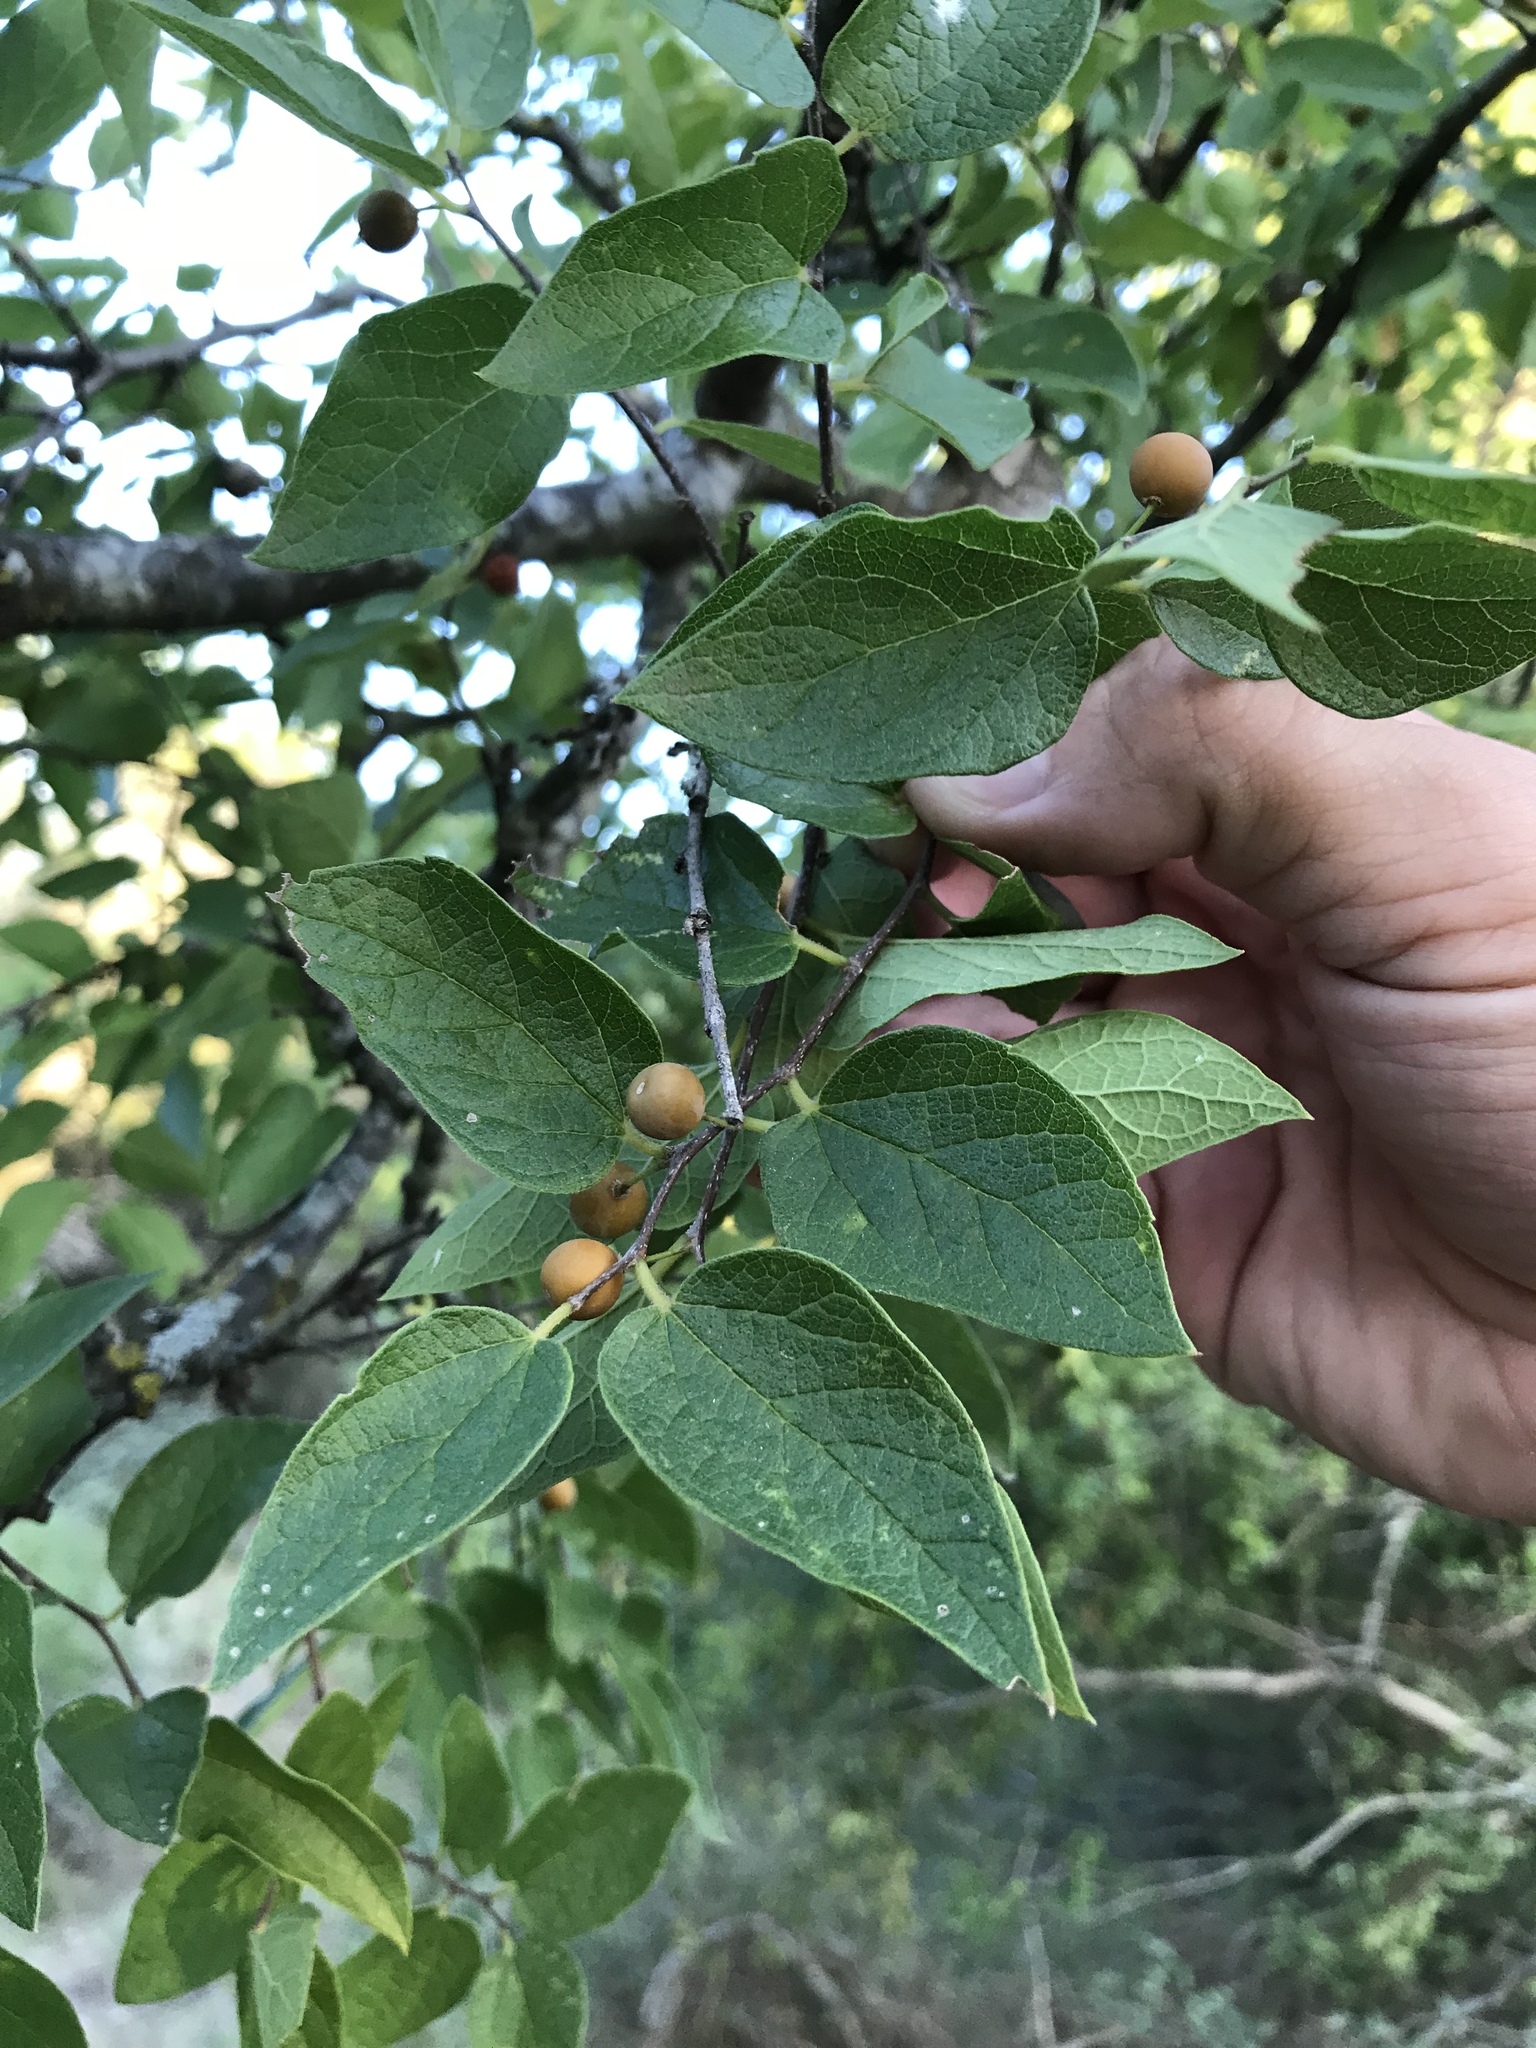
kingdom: Plantae
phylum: Tracheophyta
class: Magnoliopsida
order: Rosales
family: Cannabaceae
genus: Celtis
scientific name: Celtis reticulata
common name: Netleaf hackberry
